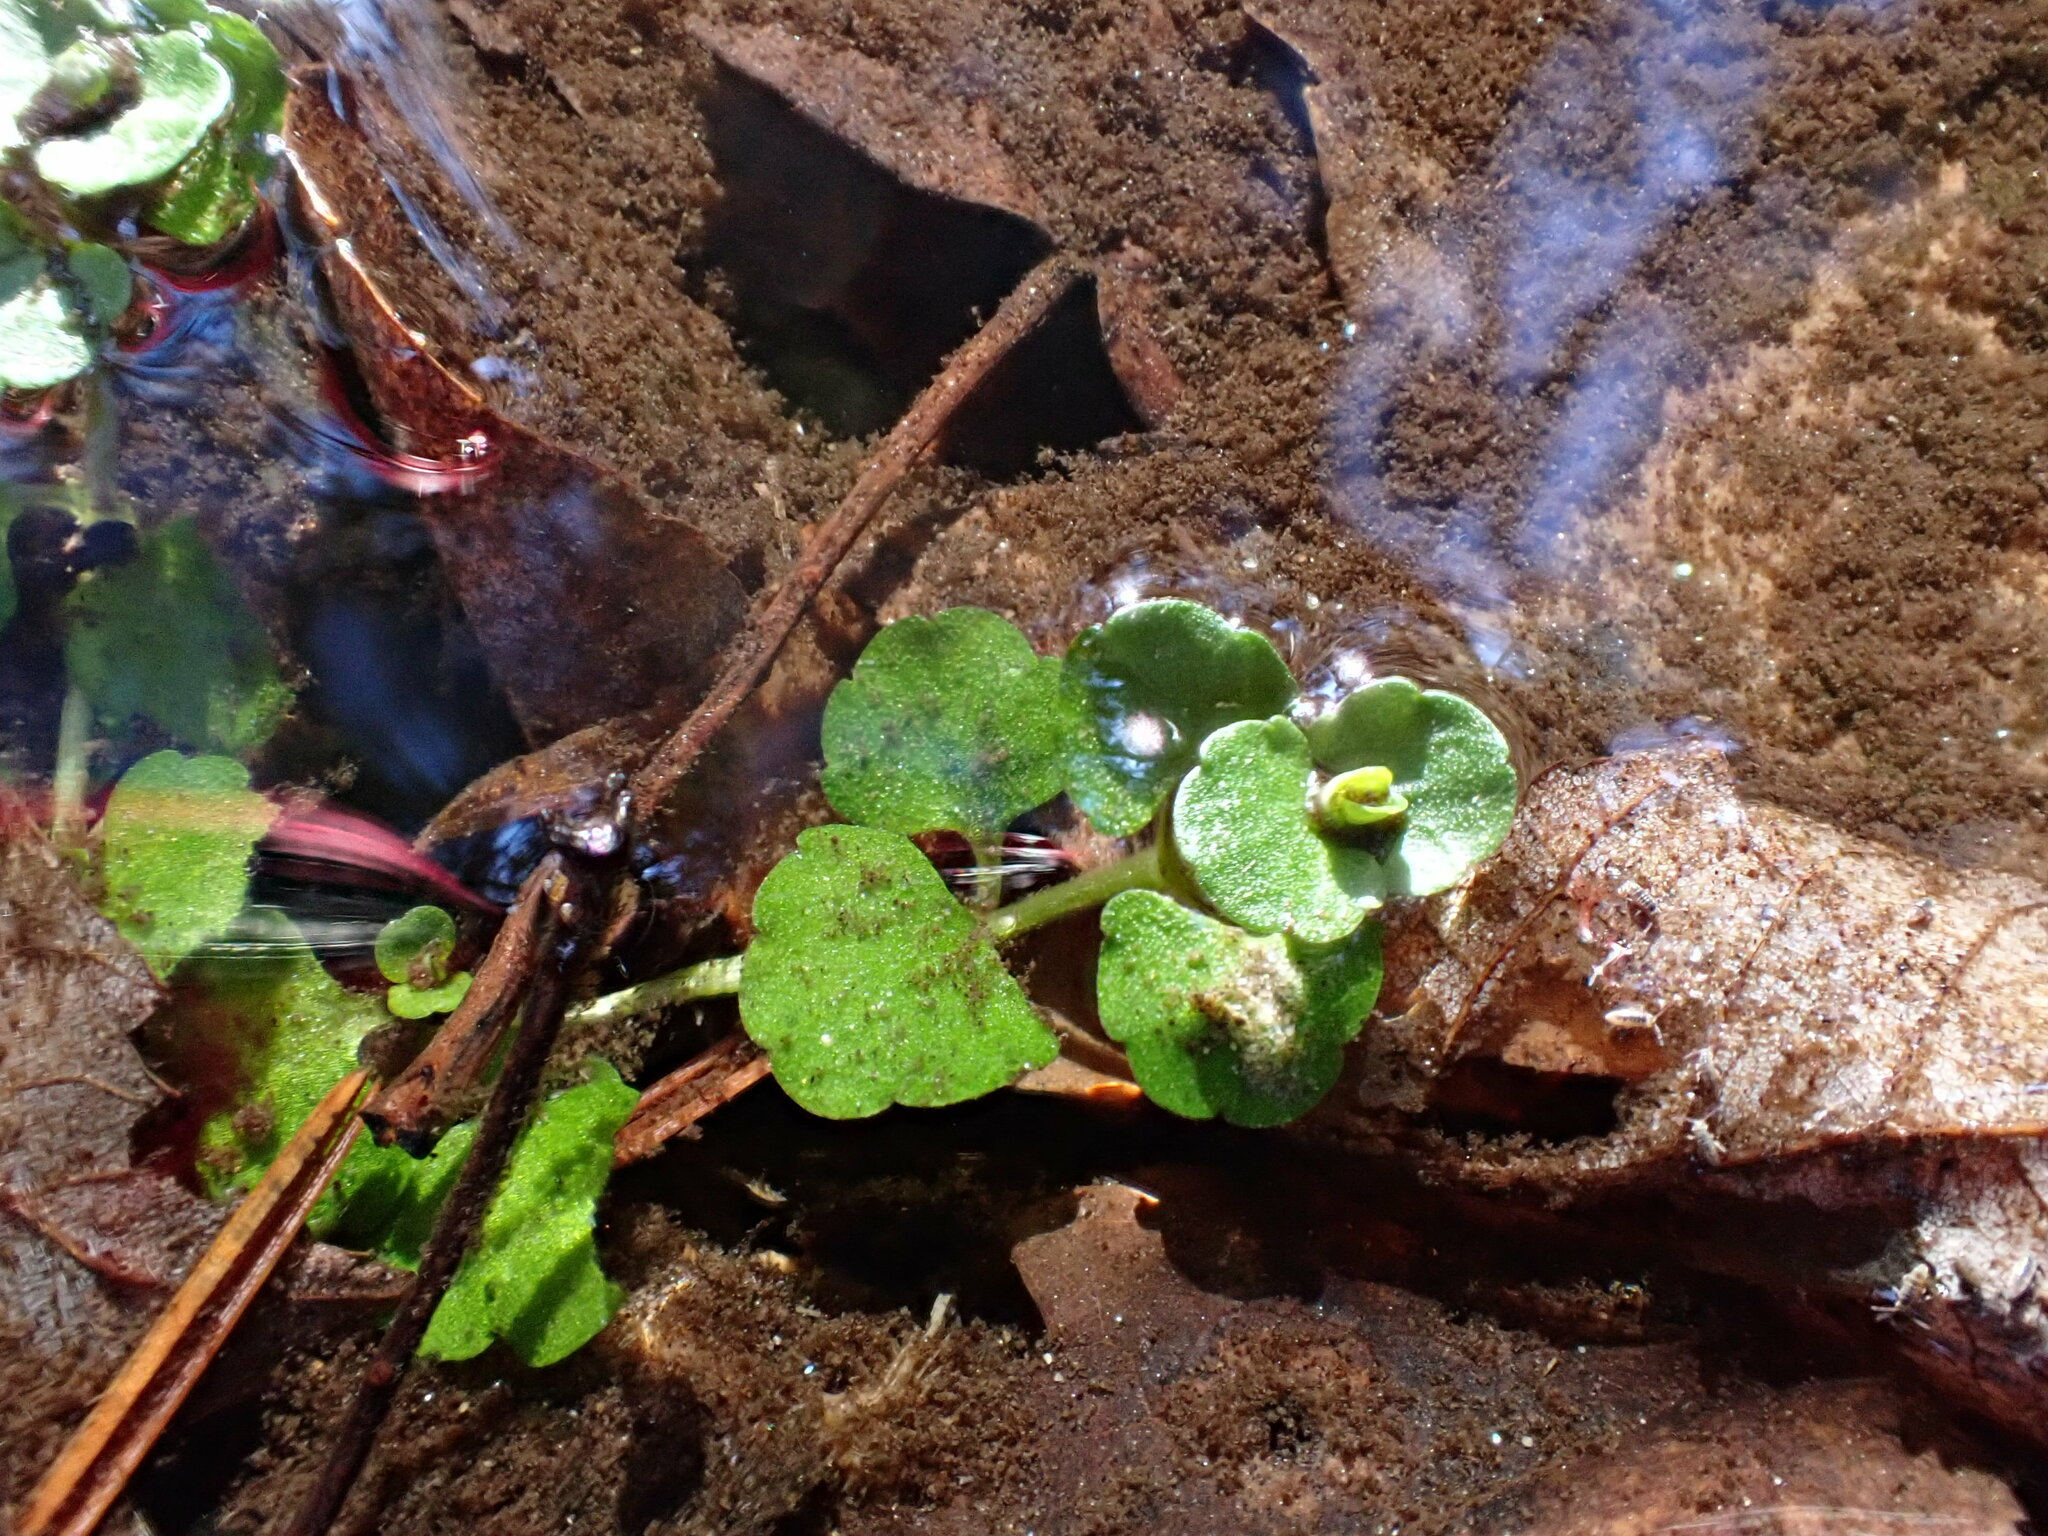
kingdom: Plantae
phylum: Tracheophyta
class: Magnoliopsida
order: Saxifragales
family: Saxifragaceae
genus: Chrysosplenium
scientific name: Chrysosplenium americanum
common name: American golden-saxifrage
